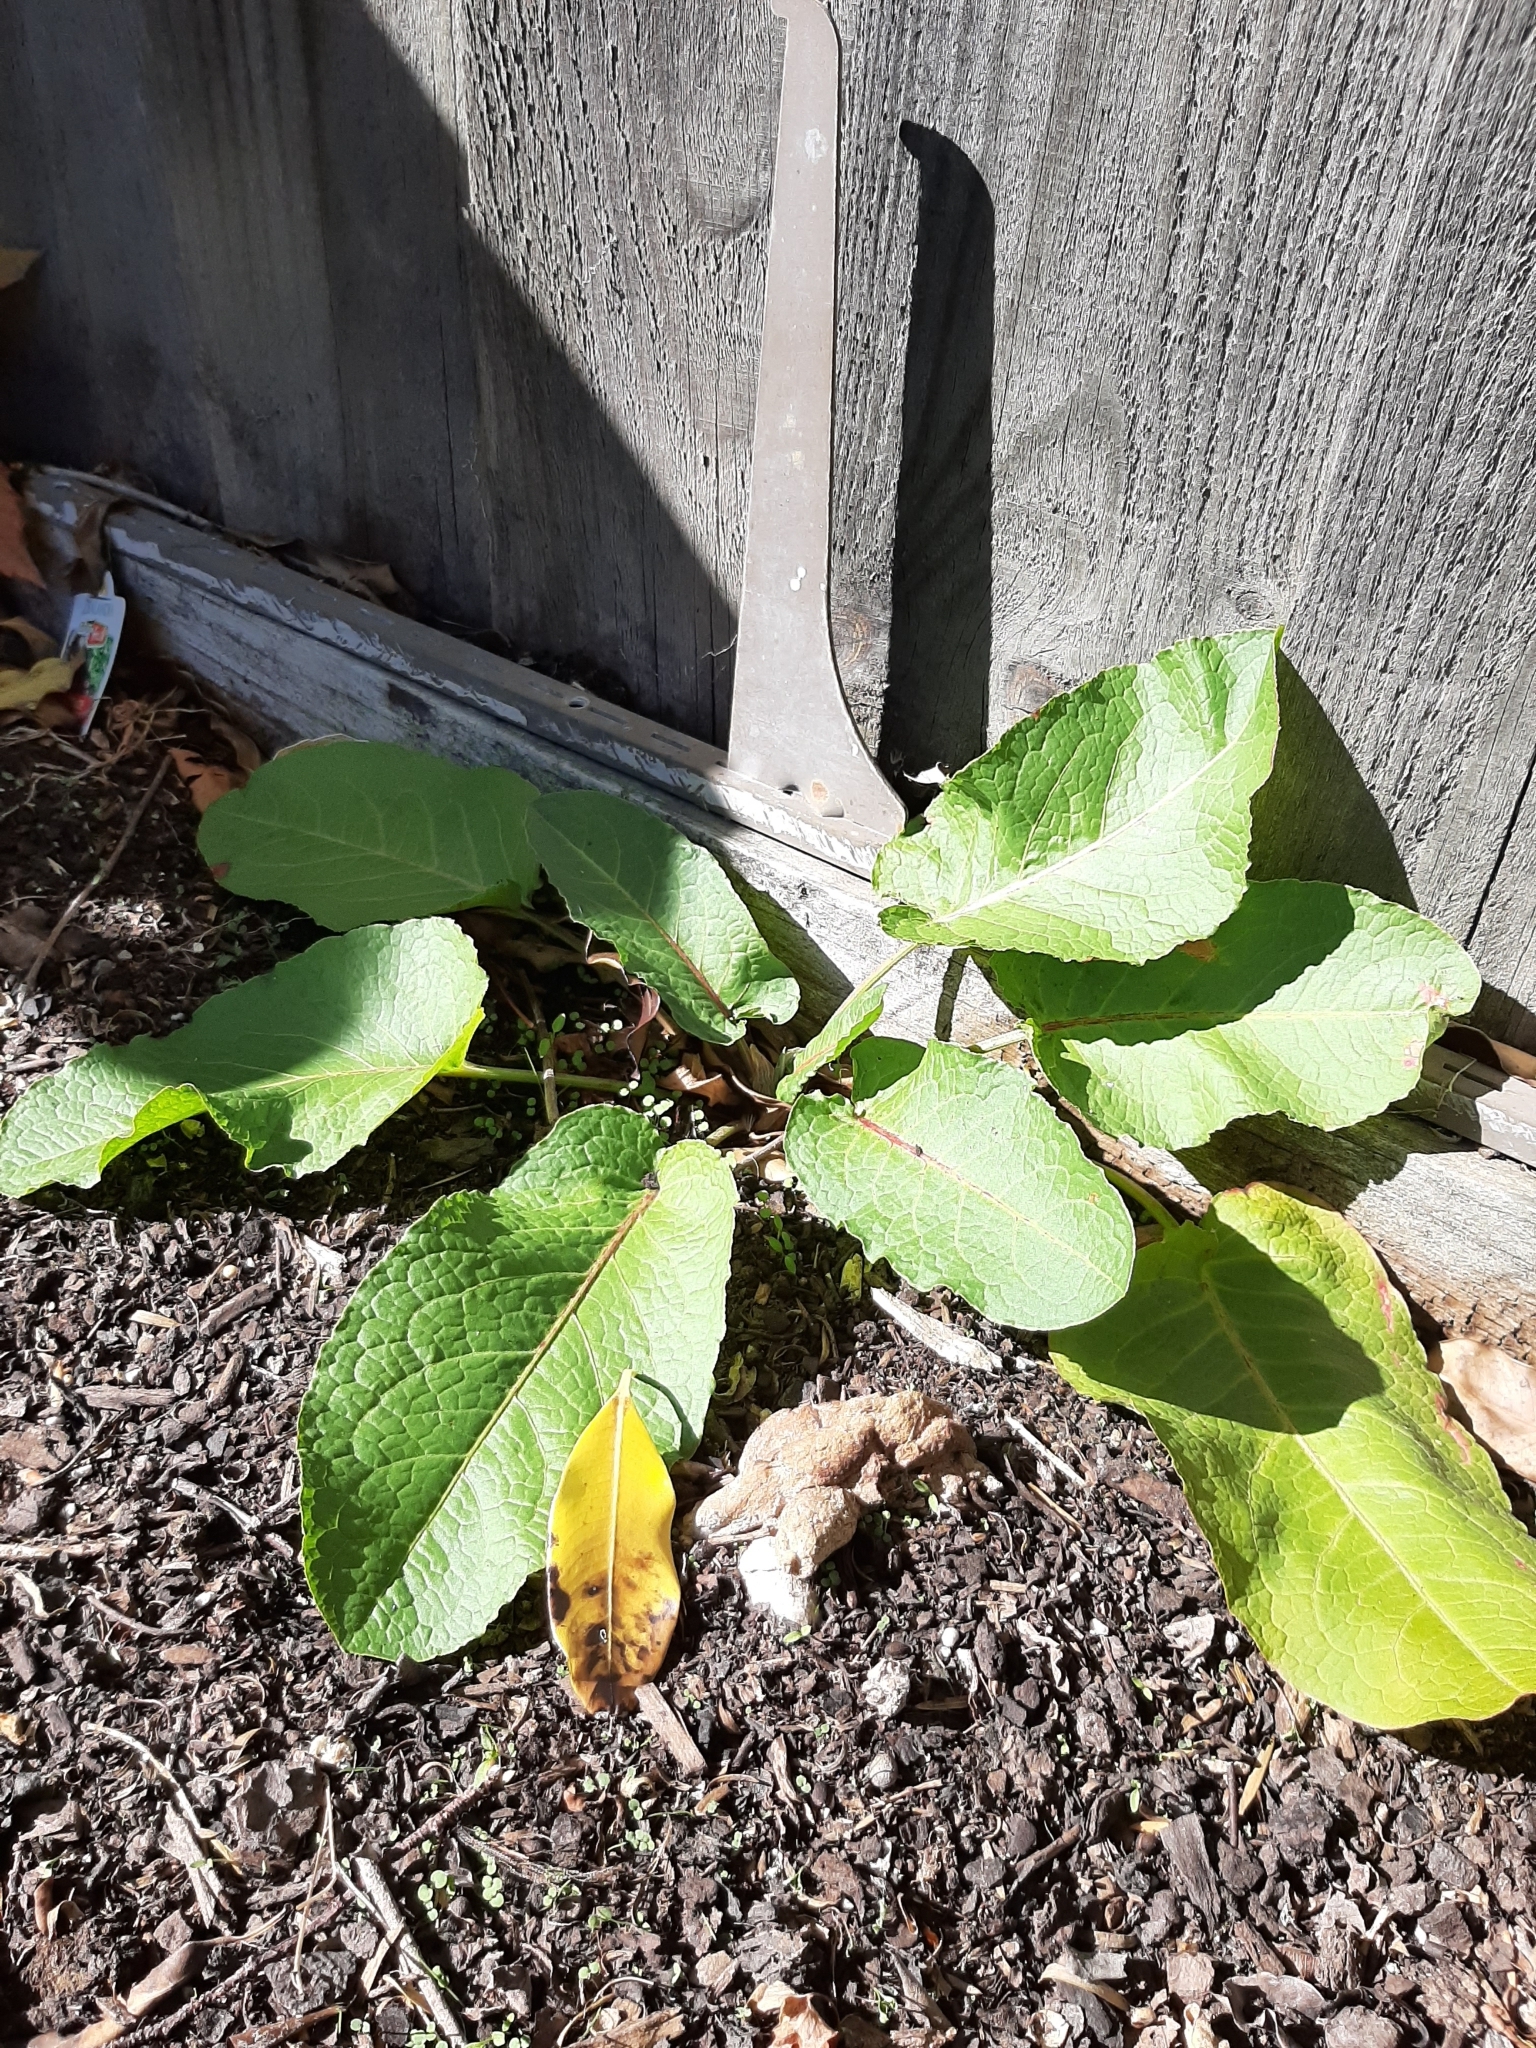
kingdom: Plantae
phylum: Tracheophyta
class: Magnoliopsida
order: Caryophyllales
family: Polygonaceae
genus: Rumex
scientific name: Rumex obtusifolius
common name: Bitter dock
